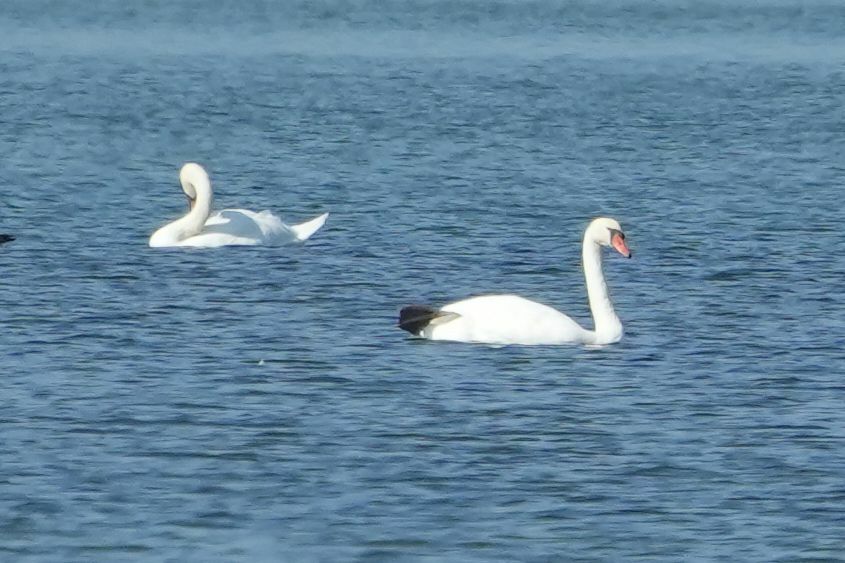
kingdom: Animalia
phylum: Chordata
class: Aves
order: Anseriformes
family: Anatidae
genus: Cygnus
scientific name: Cygnus olor
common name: Mute swan
